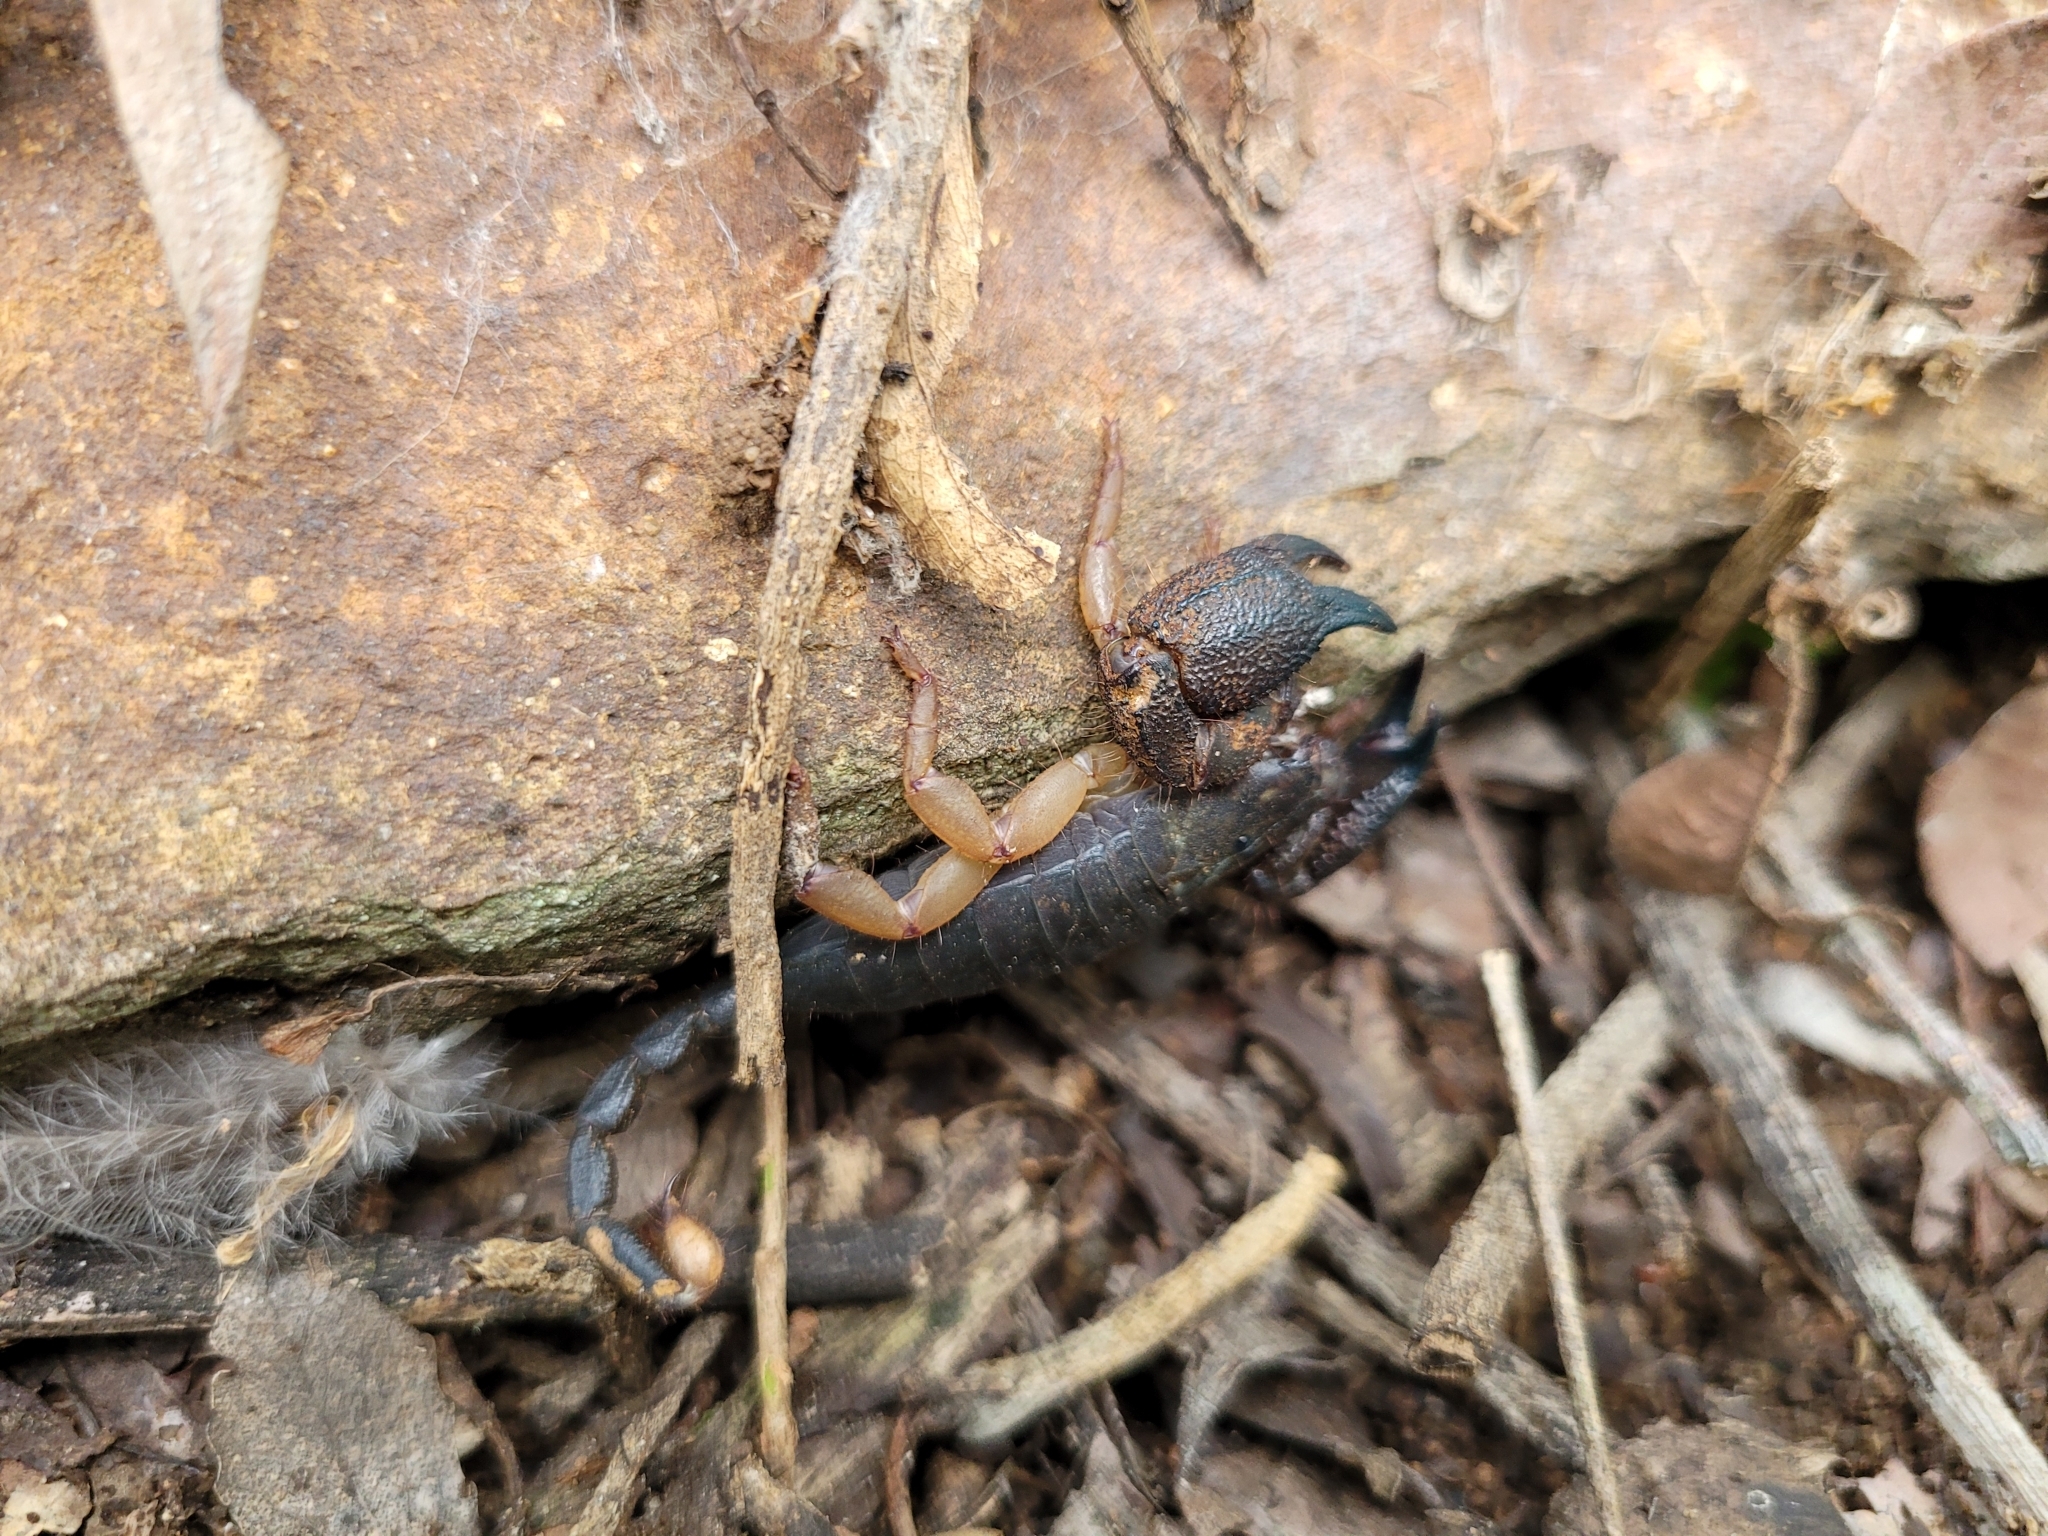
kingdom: Animalia
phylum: Arthropoda
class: Arachnida
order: Scorpiones
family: Hormuridae
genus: Opisthacanthus
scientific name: Opisthacanthus asper
